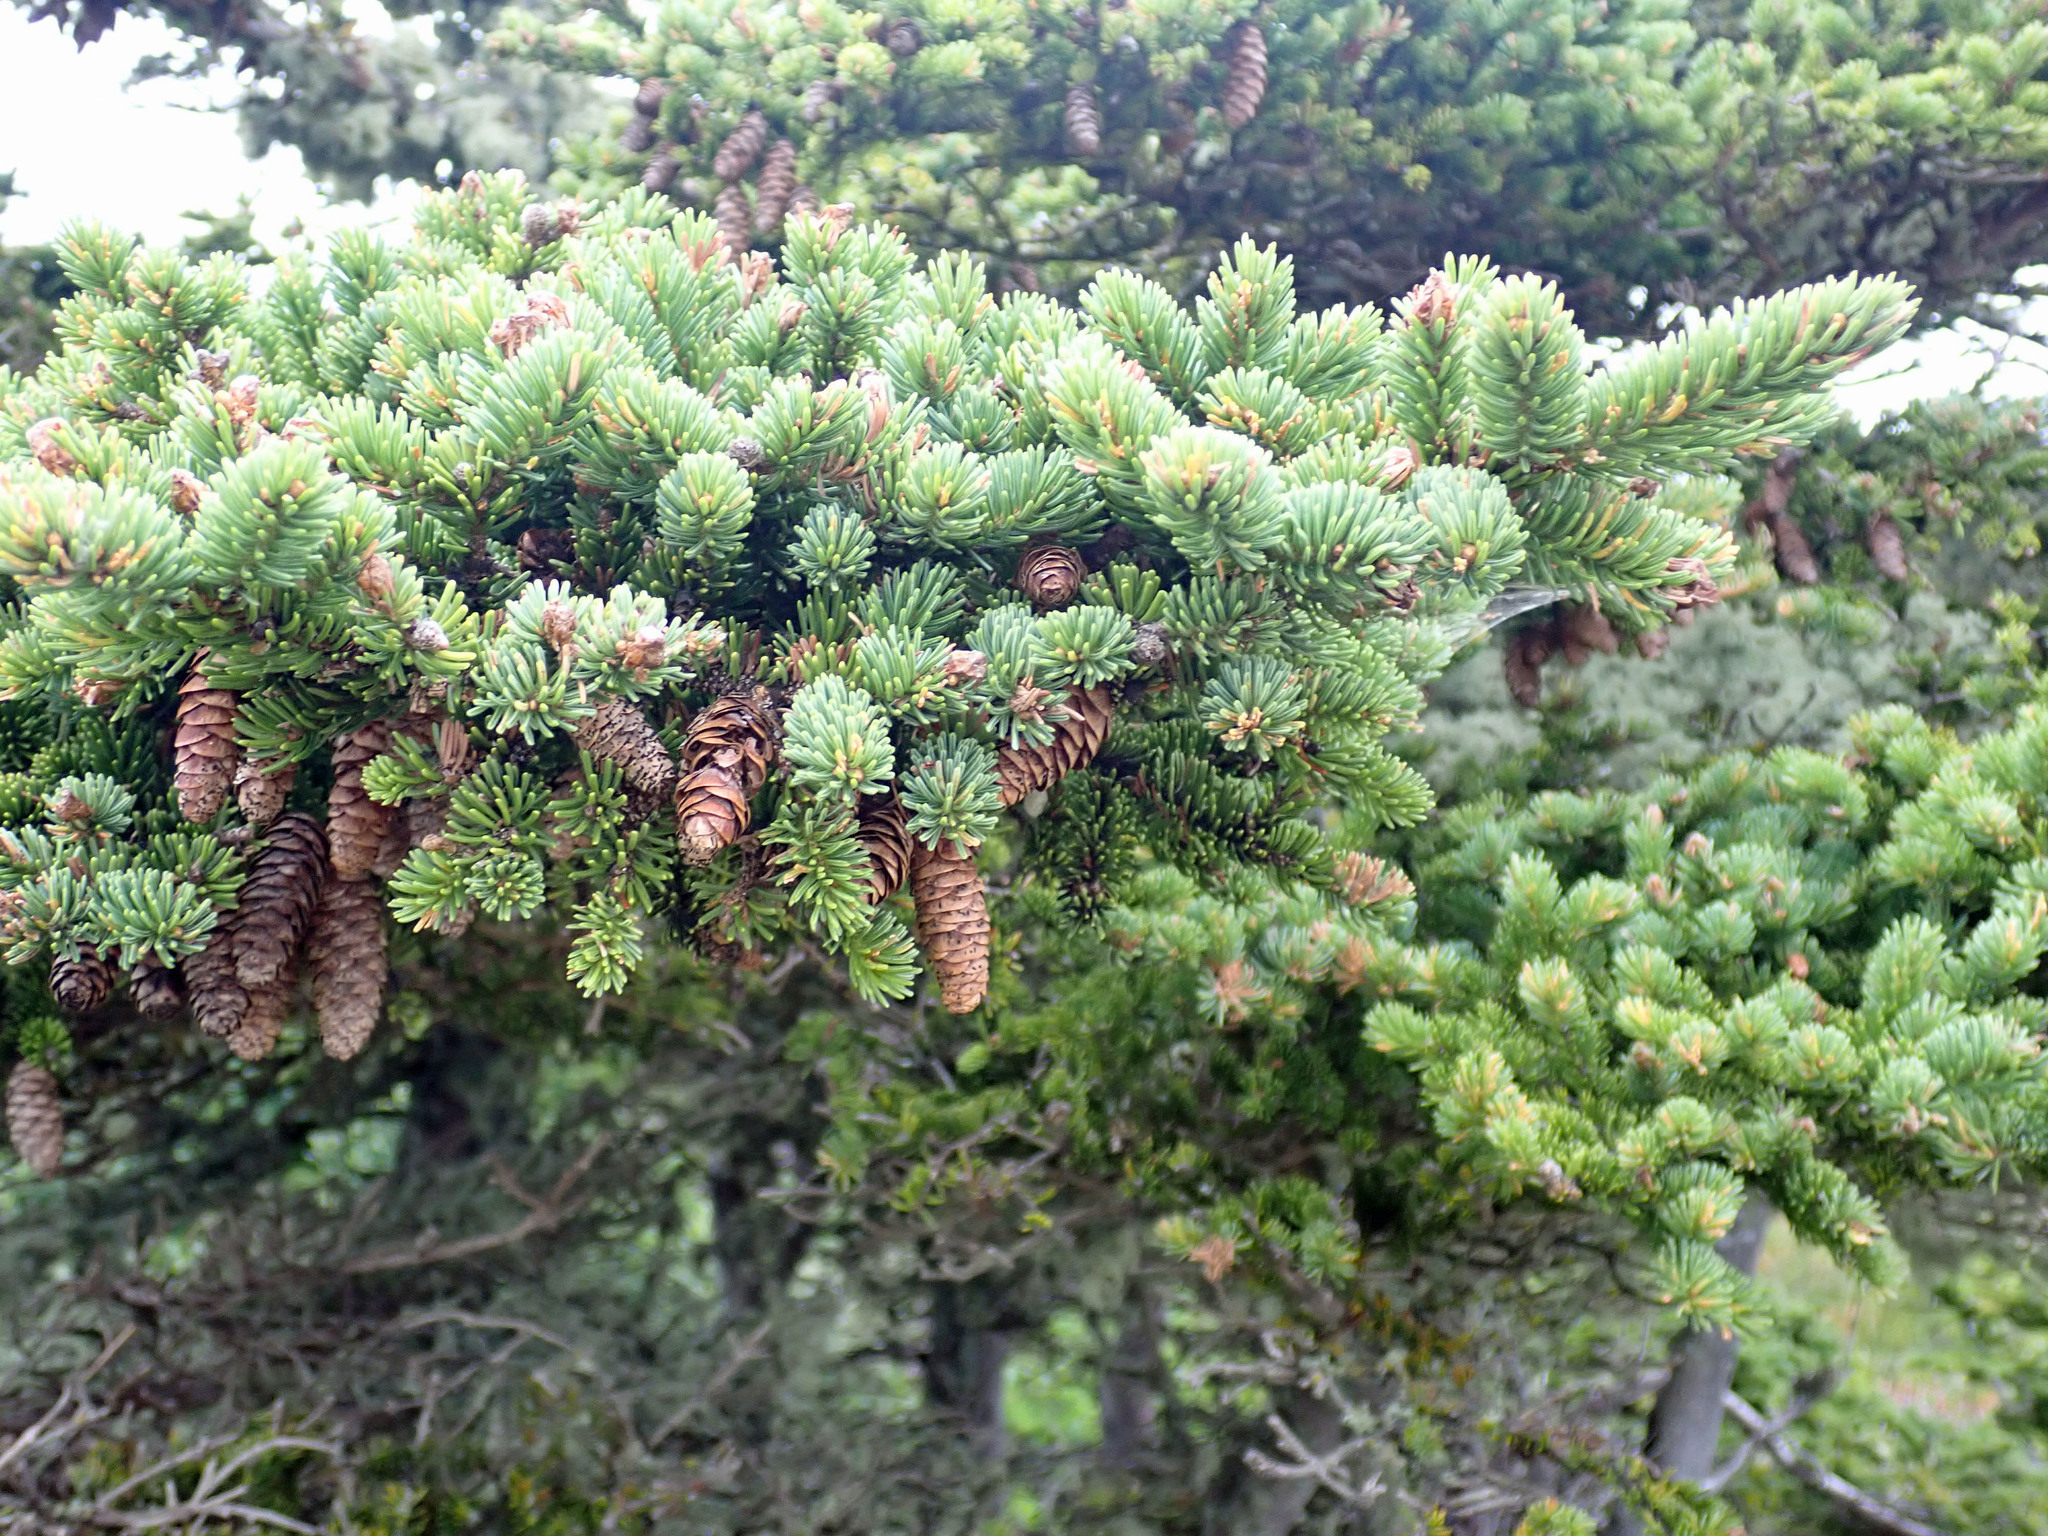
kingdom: Plantae
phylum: Tracheophyta
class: Pinopsida
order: Pinales
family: Pinaceae
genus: Picea
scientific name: Picea glauca
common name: White spruce
